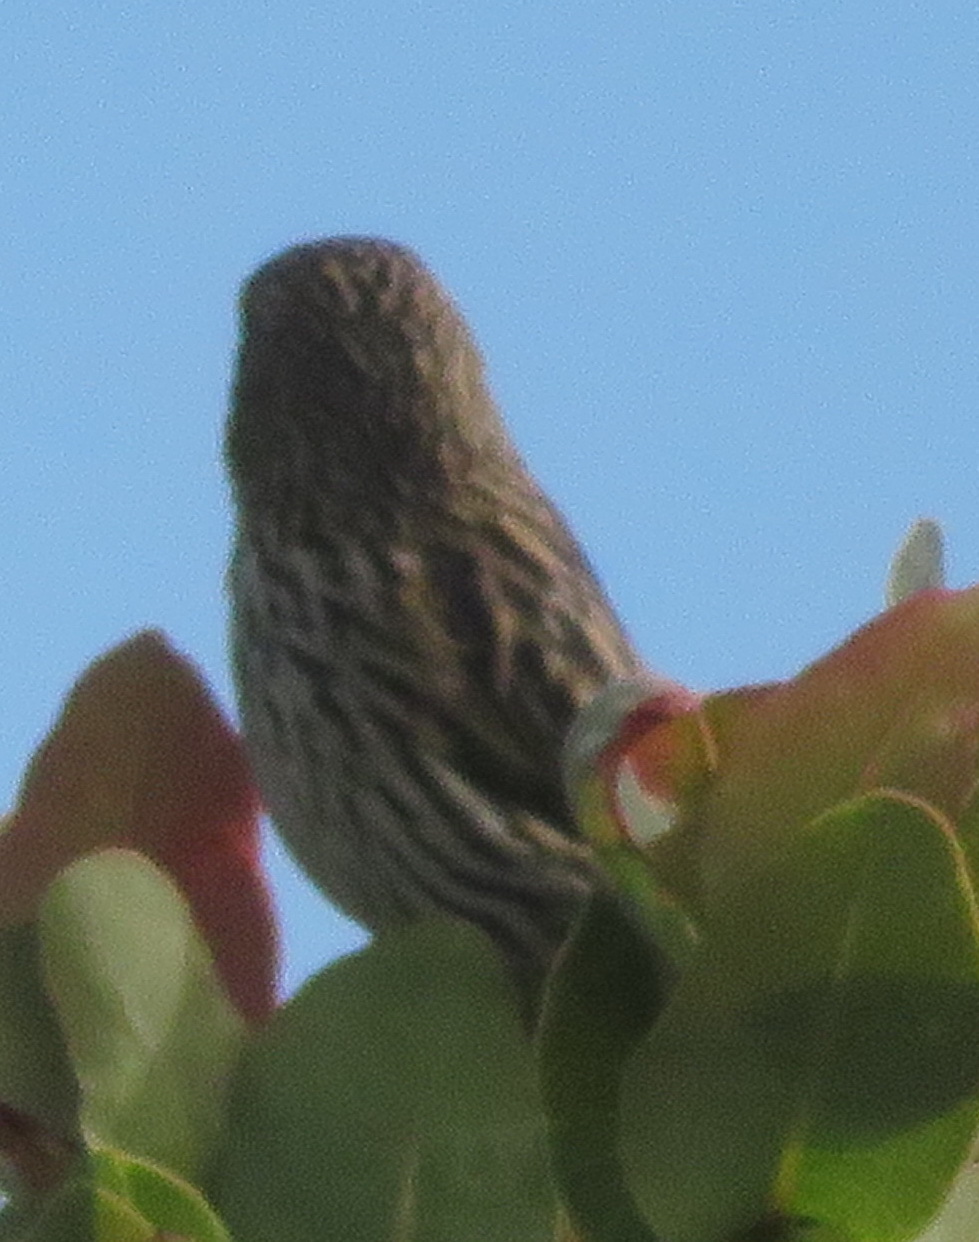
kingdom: Animalia
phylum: Chordata
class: Aves
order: Passeriformes
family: Ploceidae
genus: Euplectes
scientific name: Euplectes orix
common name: Southern red bishop
